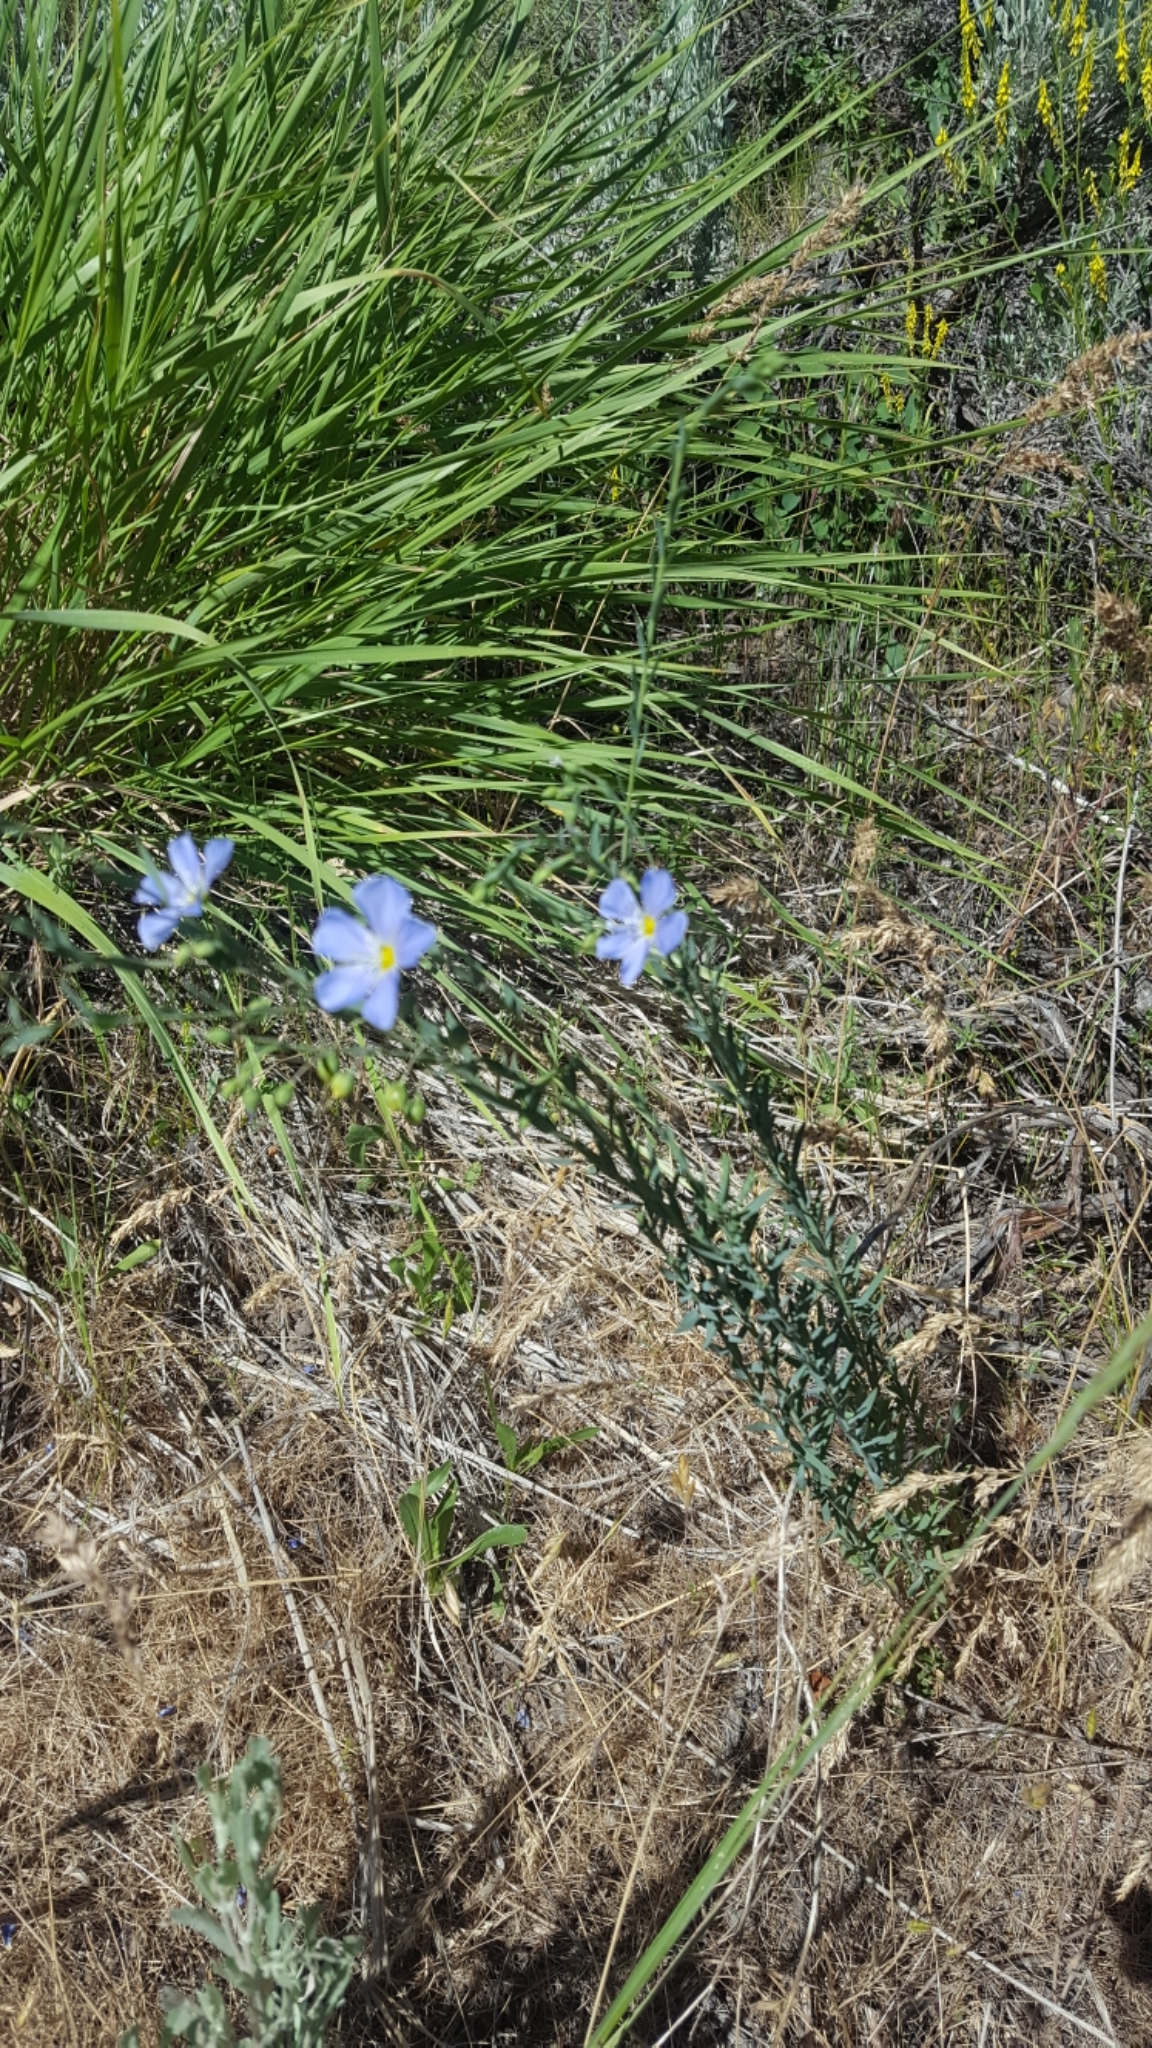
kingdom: Plantae
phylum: Tracheophyta
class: Magnoliopsida
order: Malpighiales
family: Linaceae
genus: Linum
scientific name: Linum lewisii
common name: Prairie flax
